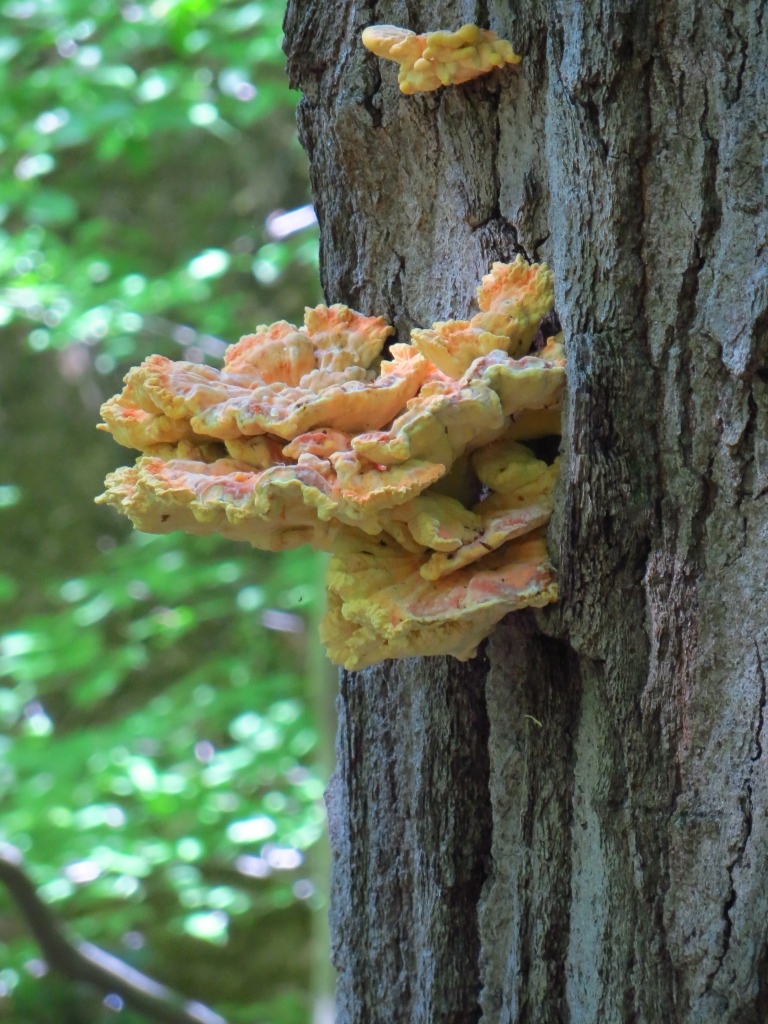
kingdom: Fungi
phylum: Basidiomycota
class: Agaricomycetes
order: Polyporales
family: Laetiporaceae
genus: Laetiporus
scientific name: Laetiporus sulphureus
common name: Chicken of the woods
